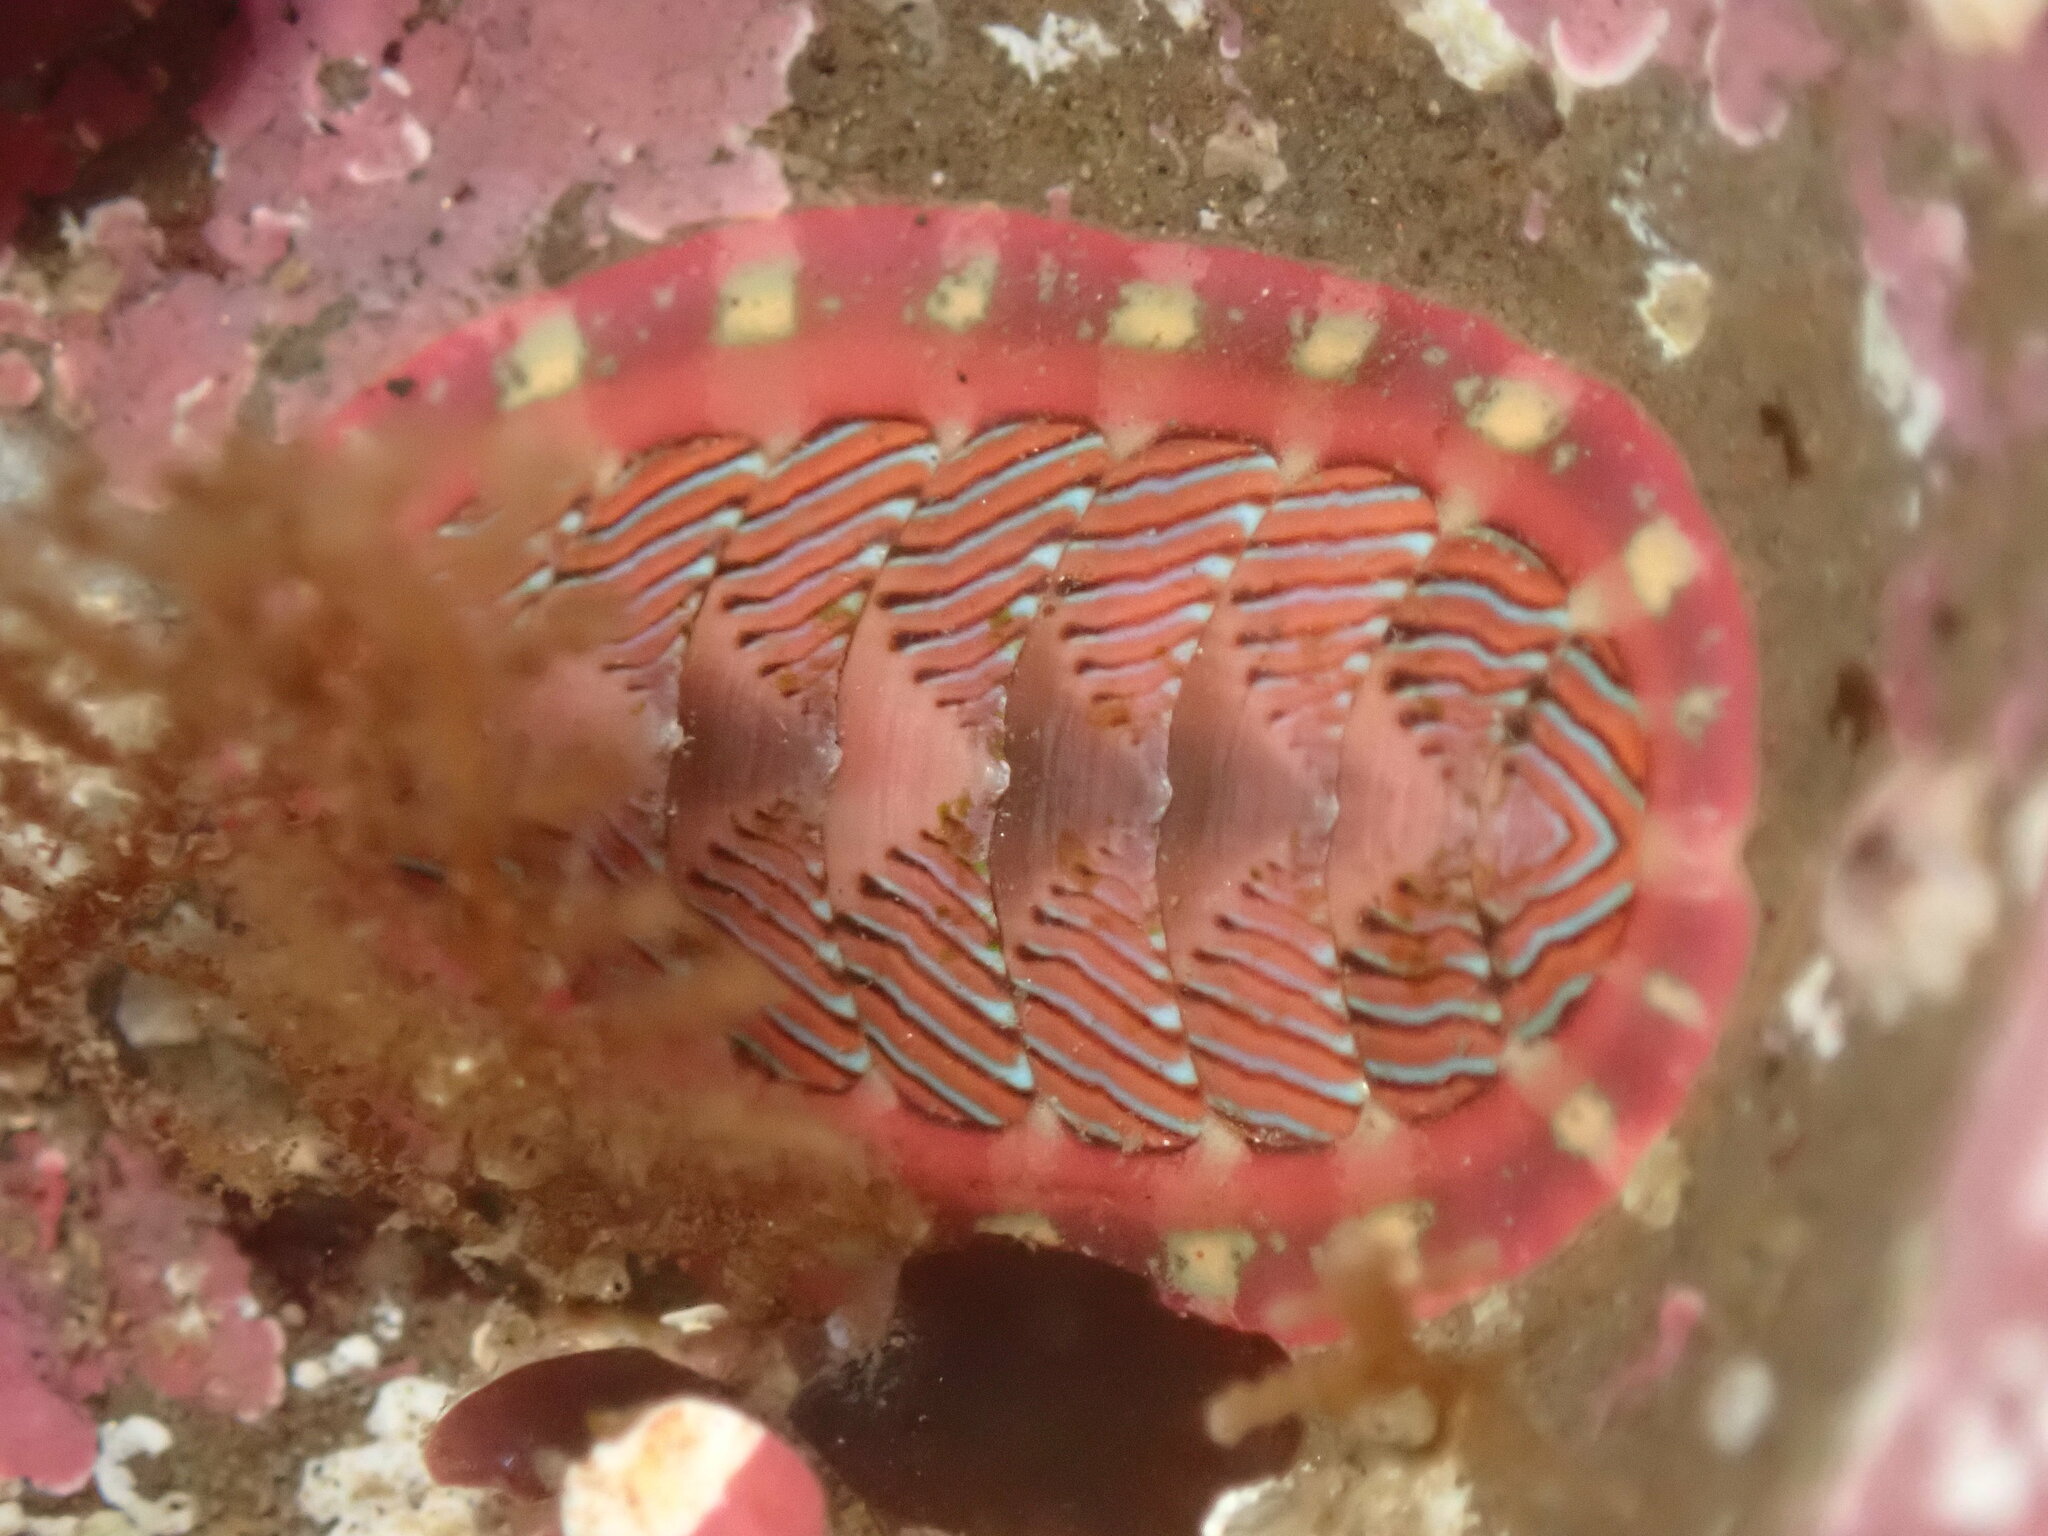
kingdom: Animalia
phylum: Mollusca
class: Polyplacophora
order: Chitonida
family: Tonicellidae
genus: Tonicella
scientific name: Tonicella lineata
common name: Lined chiton
